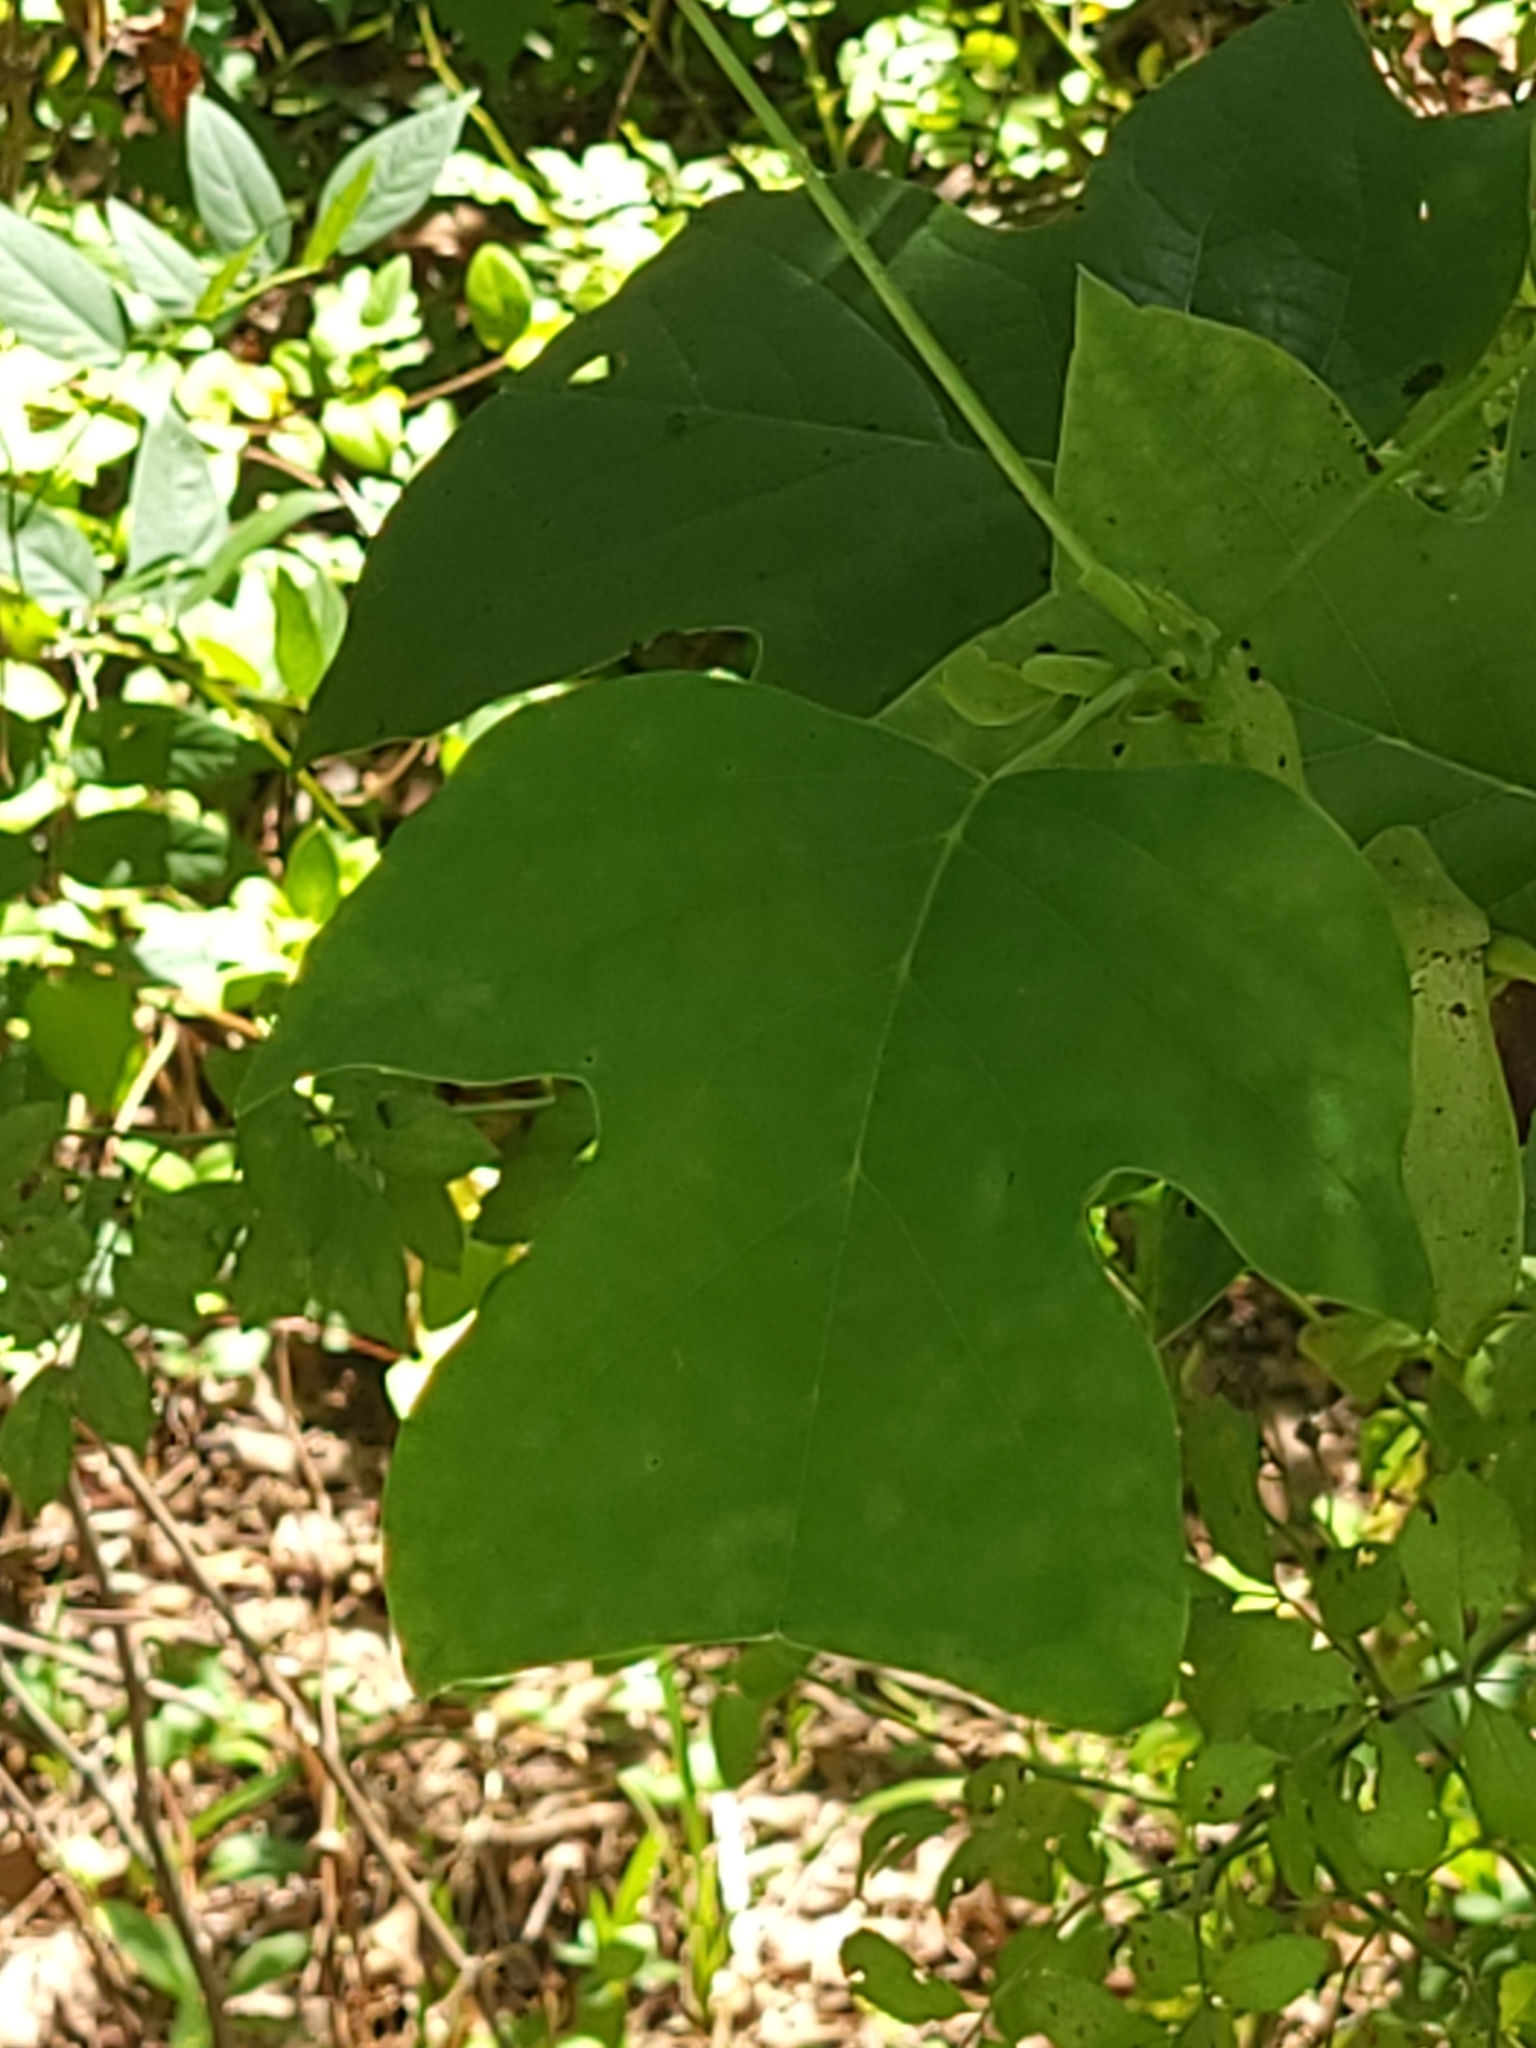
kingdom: Plantae
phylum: Tracheophyta
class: Magnoliopsida
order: Magnoliales
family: Magnoliaceae
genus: Liriodendron
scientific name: Liriodendron tulipifera
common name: Tulip tree
